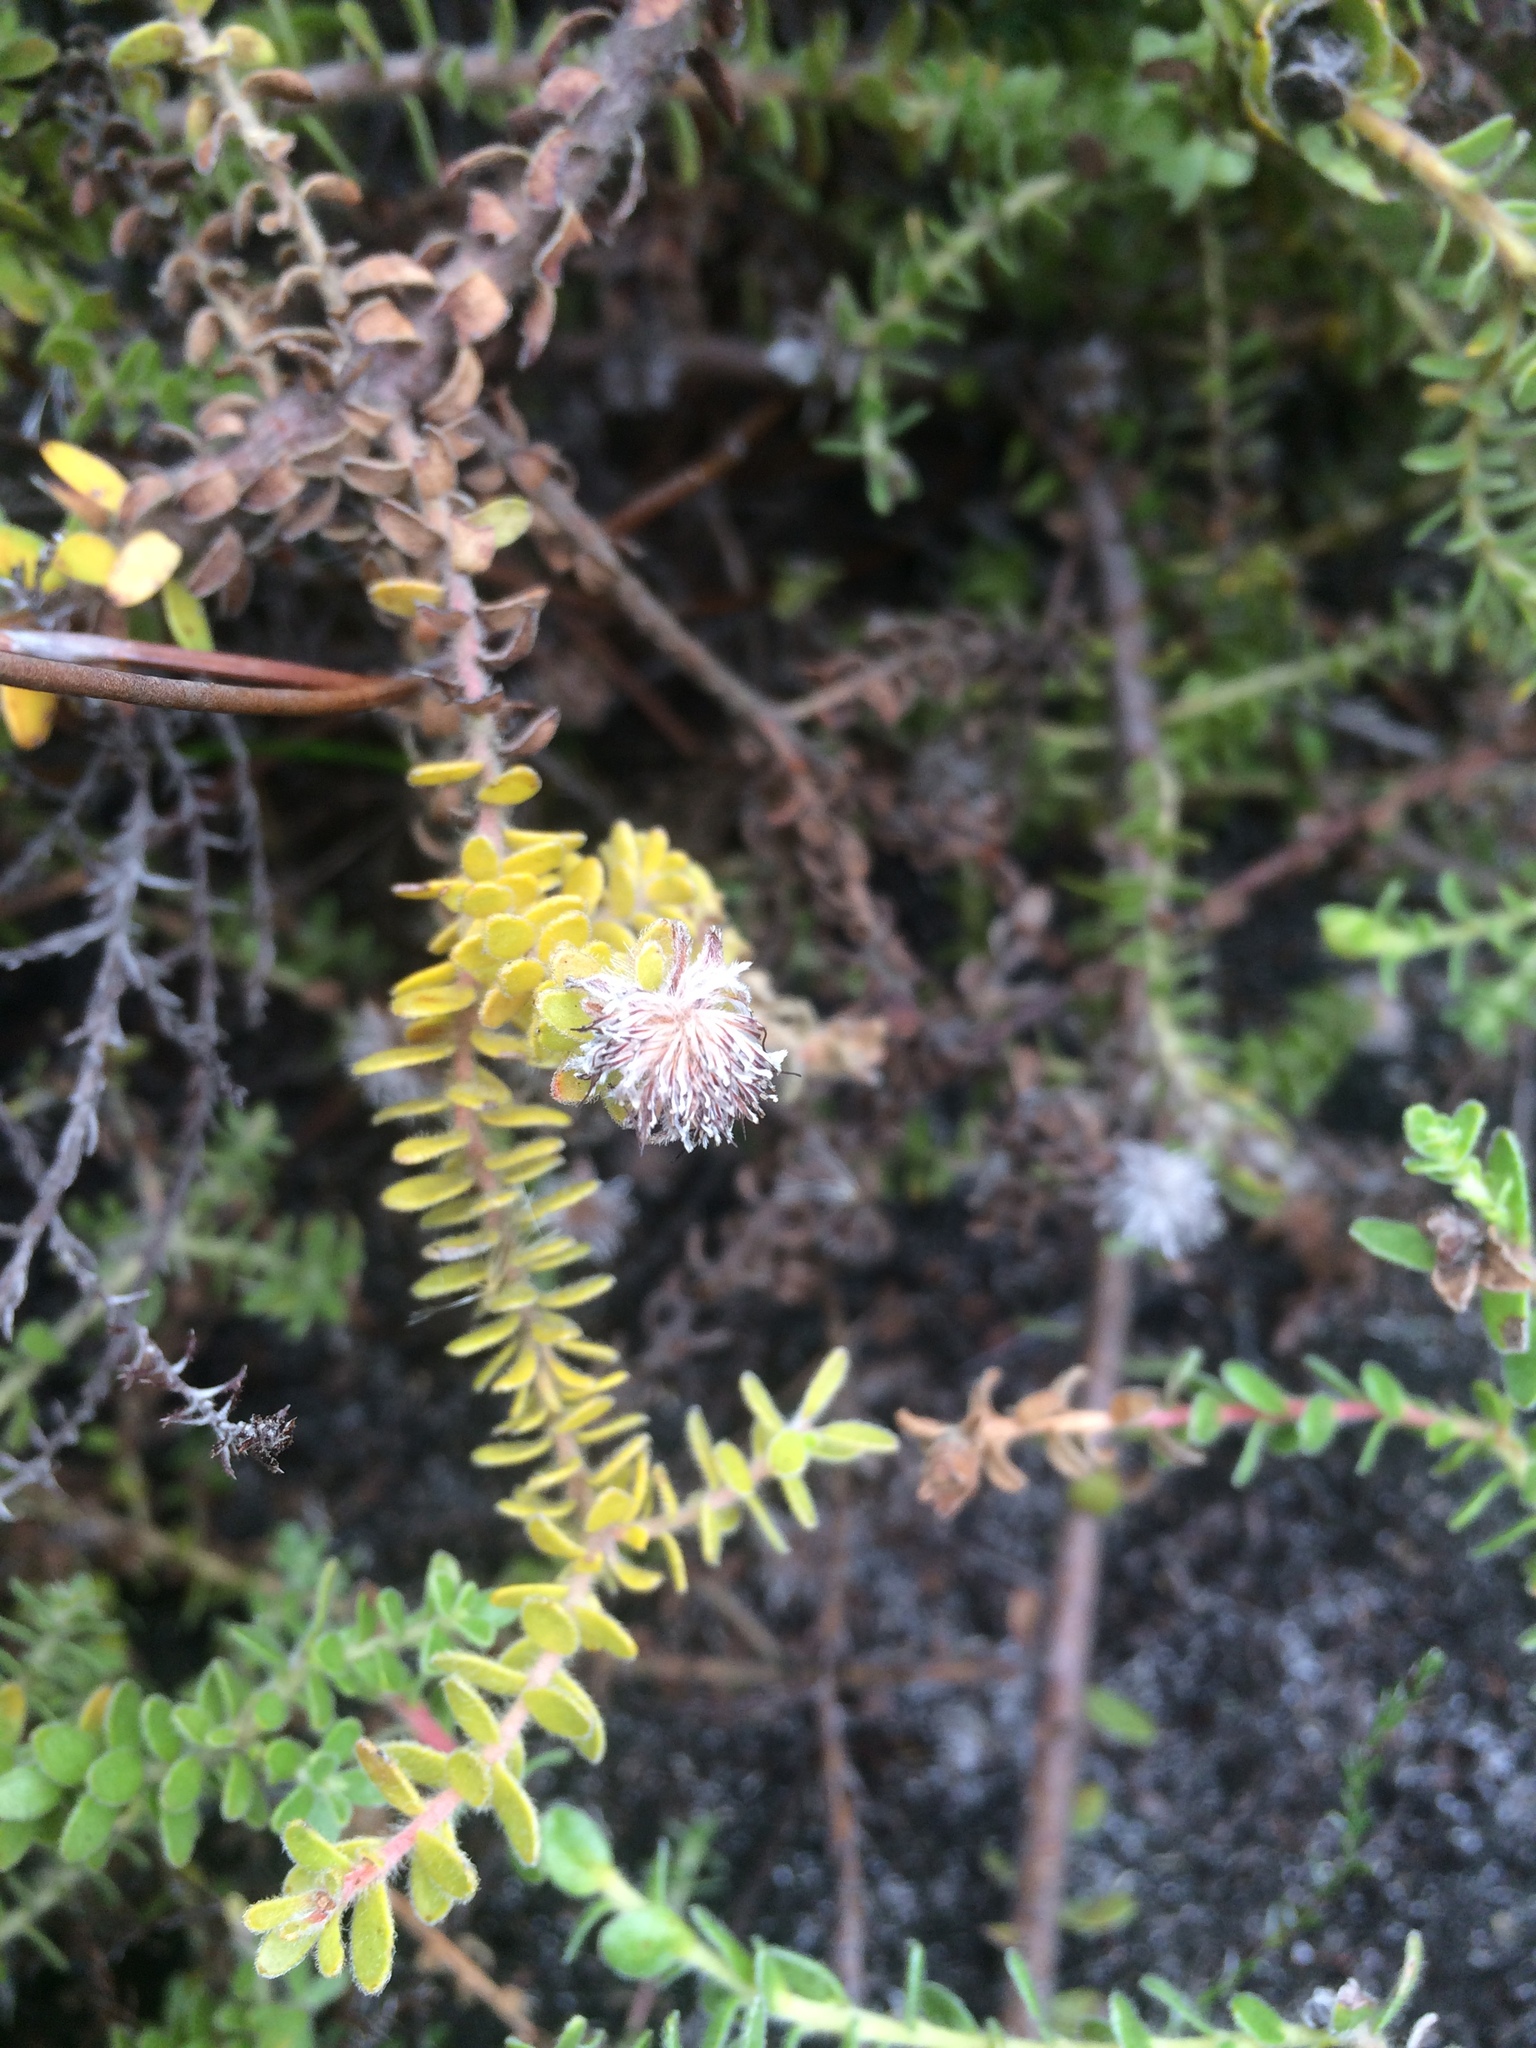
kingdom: Plantae
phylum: Tracheophyta
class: Magnoliopsida
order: Proteales
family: Proteaceae
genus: Diastella
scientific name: Diastella divaricata
